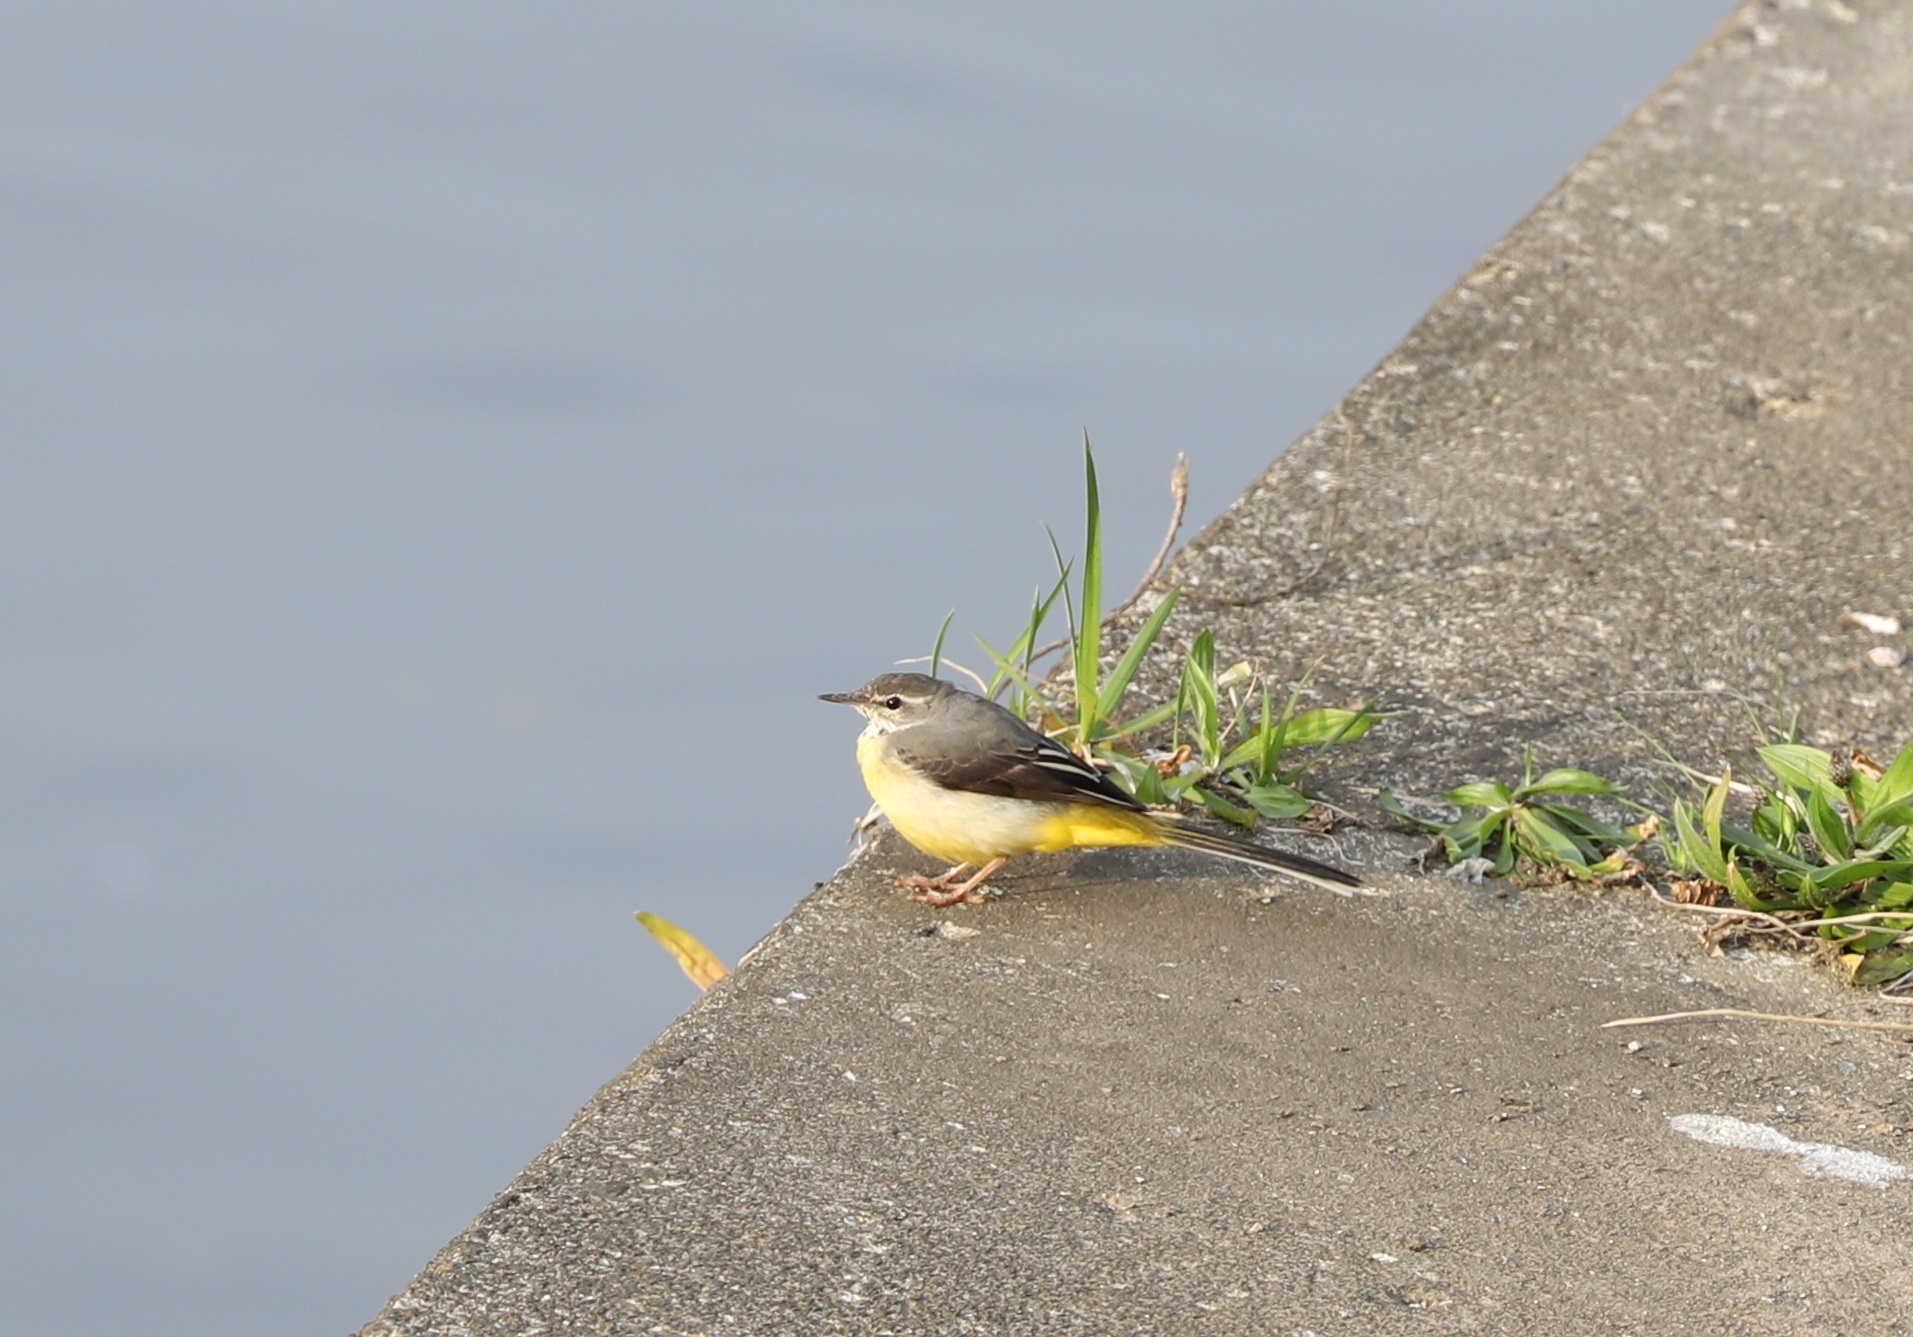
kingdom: Animalia
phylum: Chordata
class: Aves
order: Passeriformes
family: Motacillidae
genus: Motacilla
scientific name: Motacilla cinerea
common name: Grey wagtail
